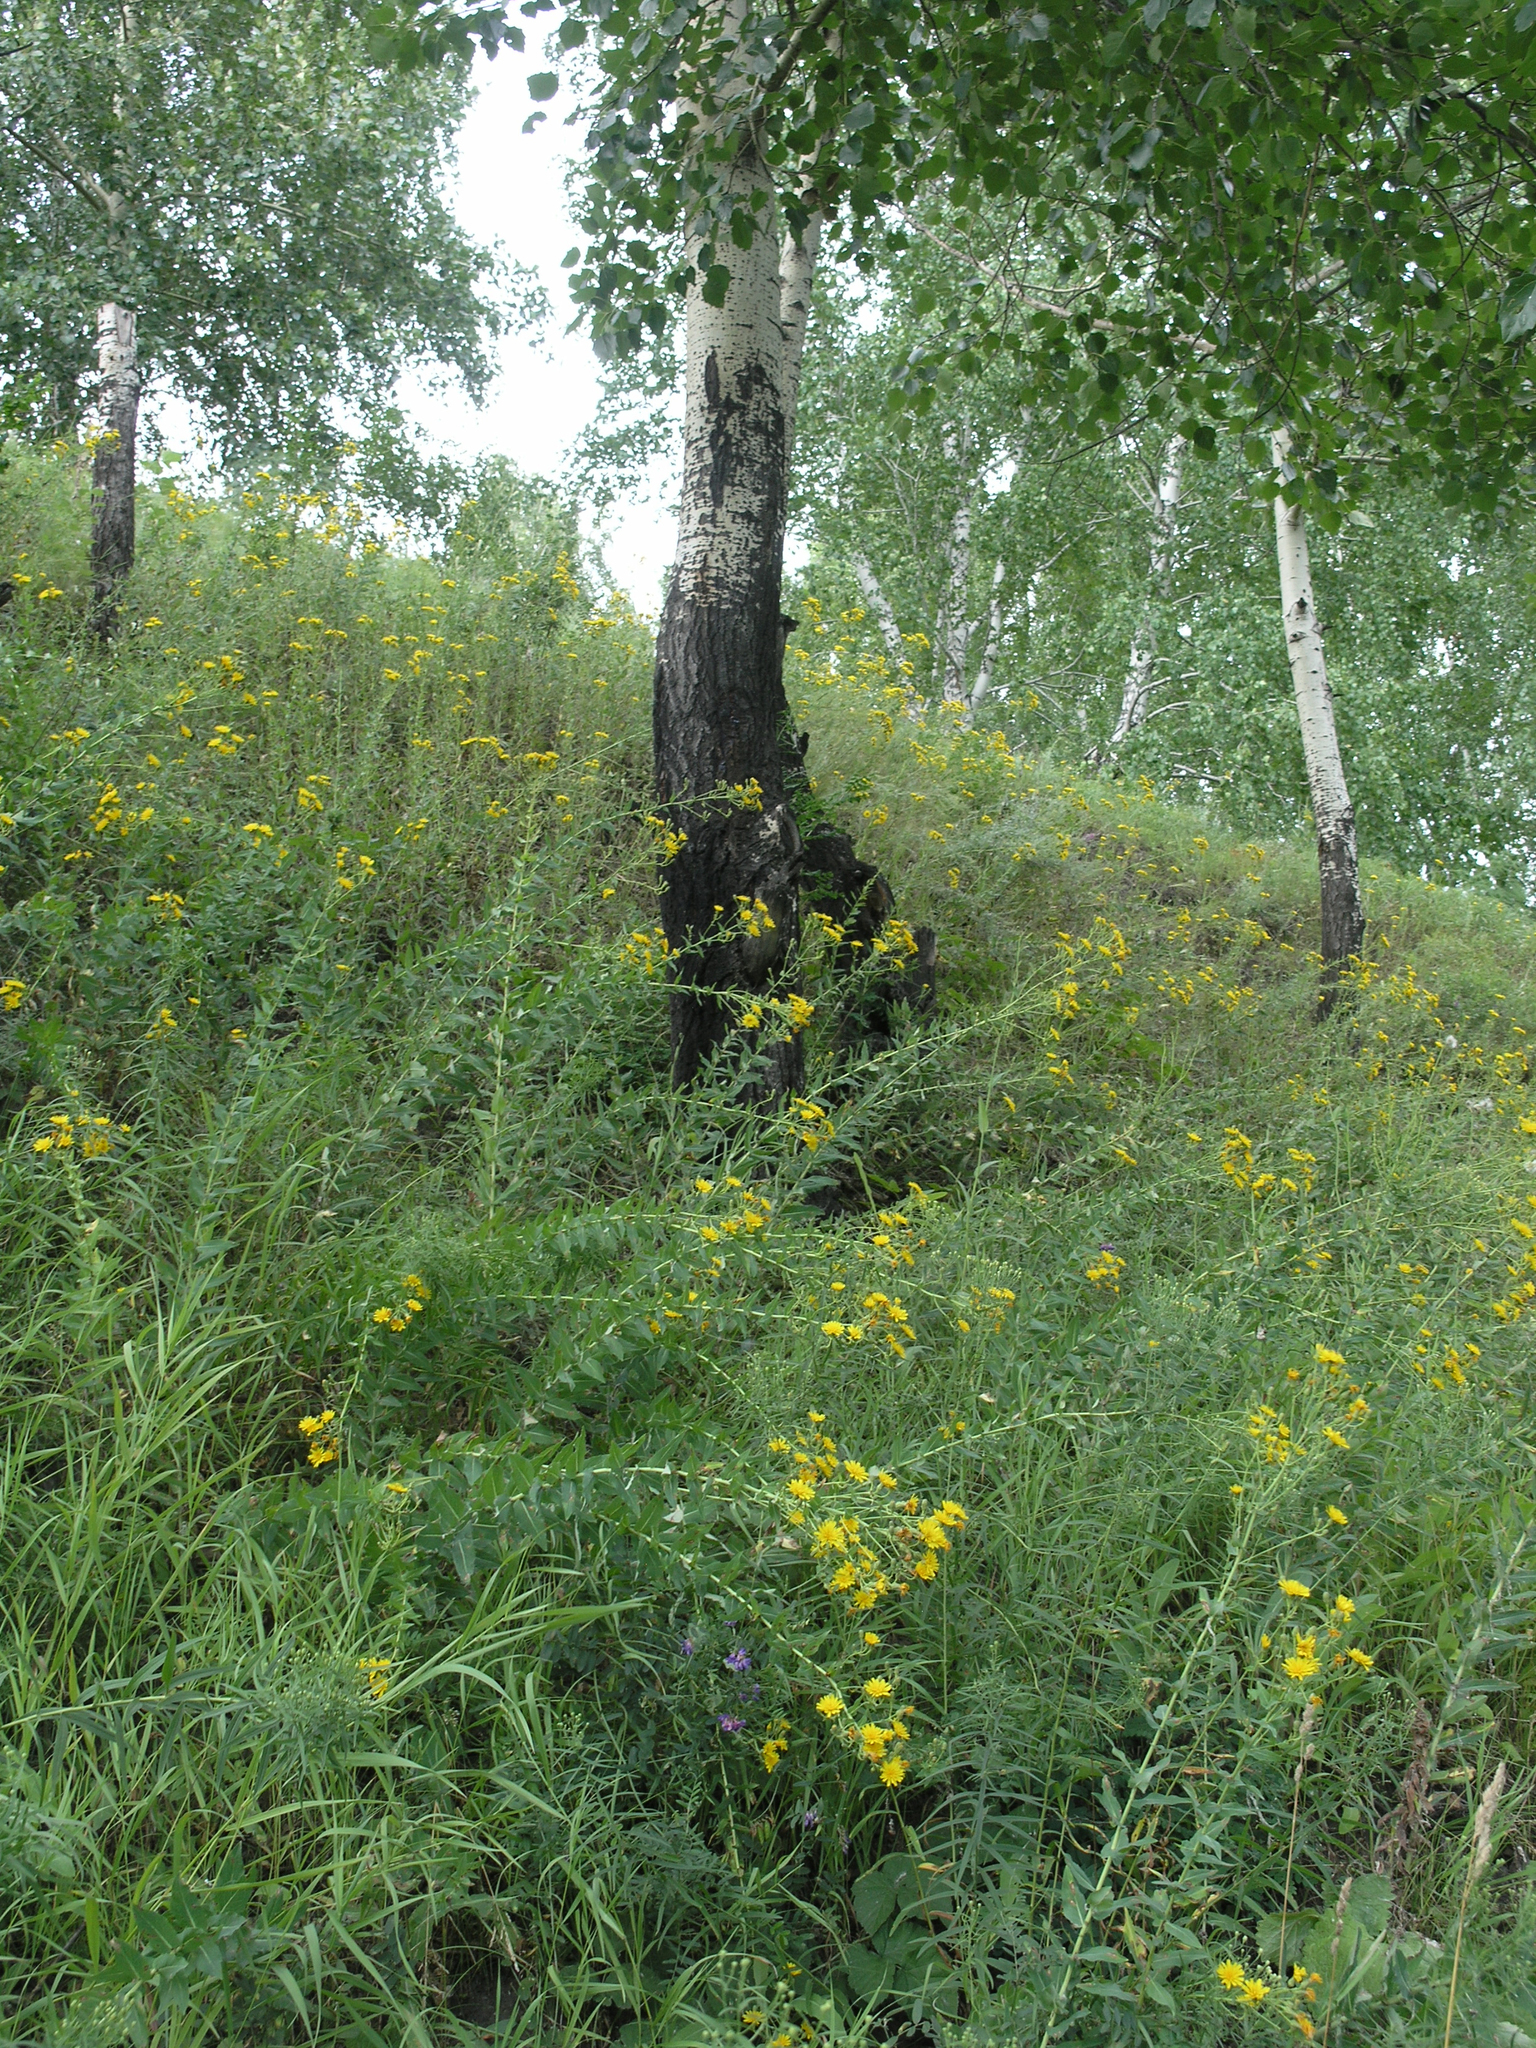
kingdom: Plantae
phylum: Tracheophyta
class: Magnoliopsida
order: Fagales
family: Betulaceae
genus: Betula
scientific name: Betula pendula
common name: Silver birch
